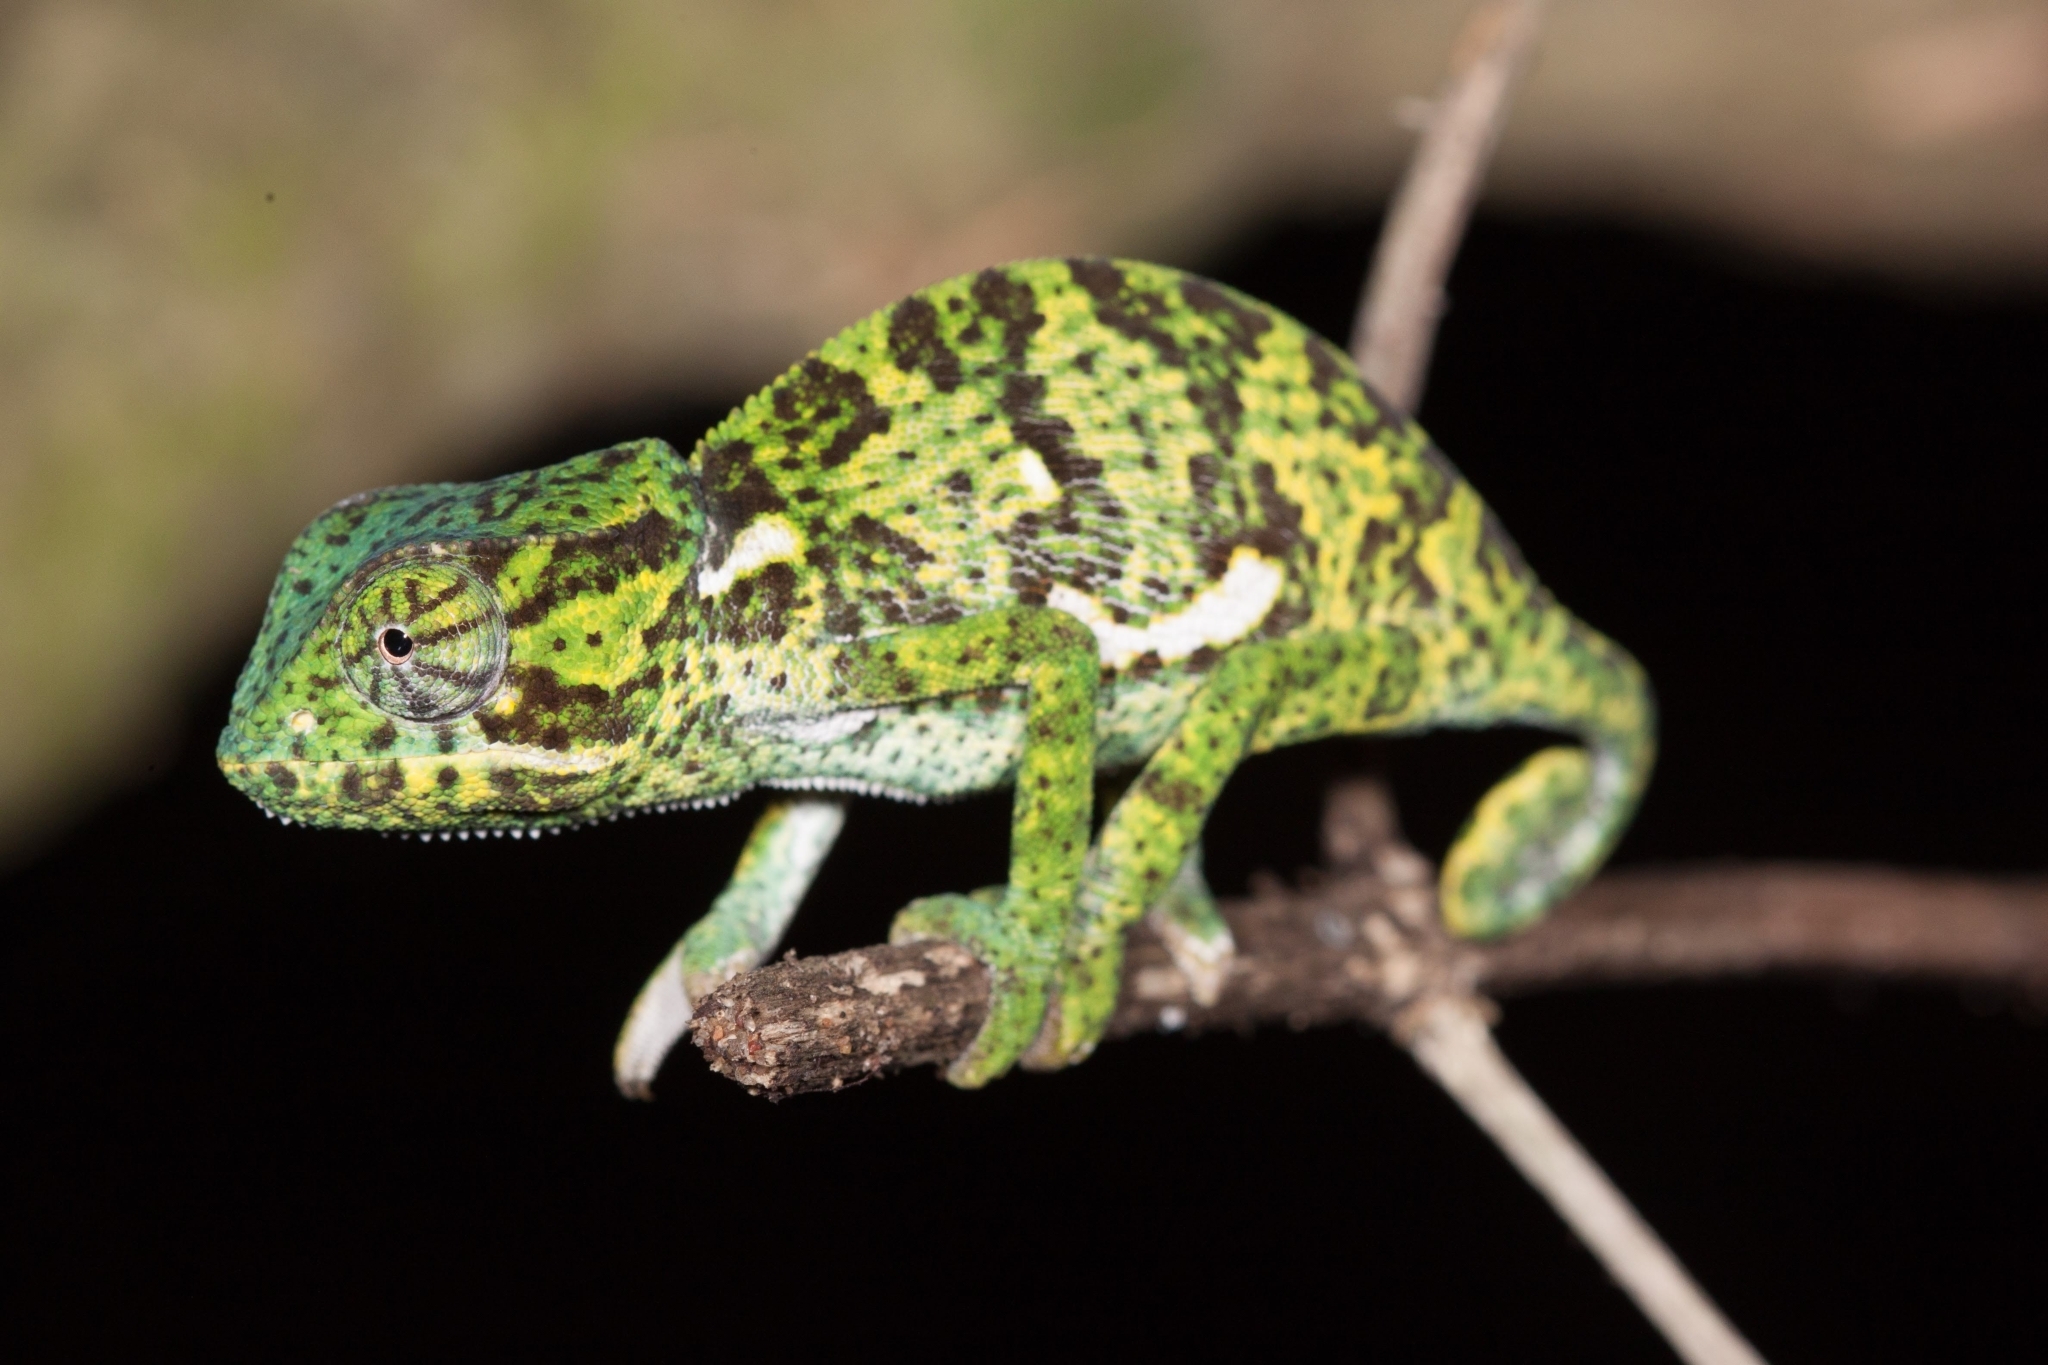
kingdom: Animalia
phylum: Chordata
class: Squamata
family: Chamaeleonidae
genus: Chamaeleo
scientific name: Chamaeleo dilepis
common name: Flapneck chameleon
